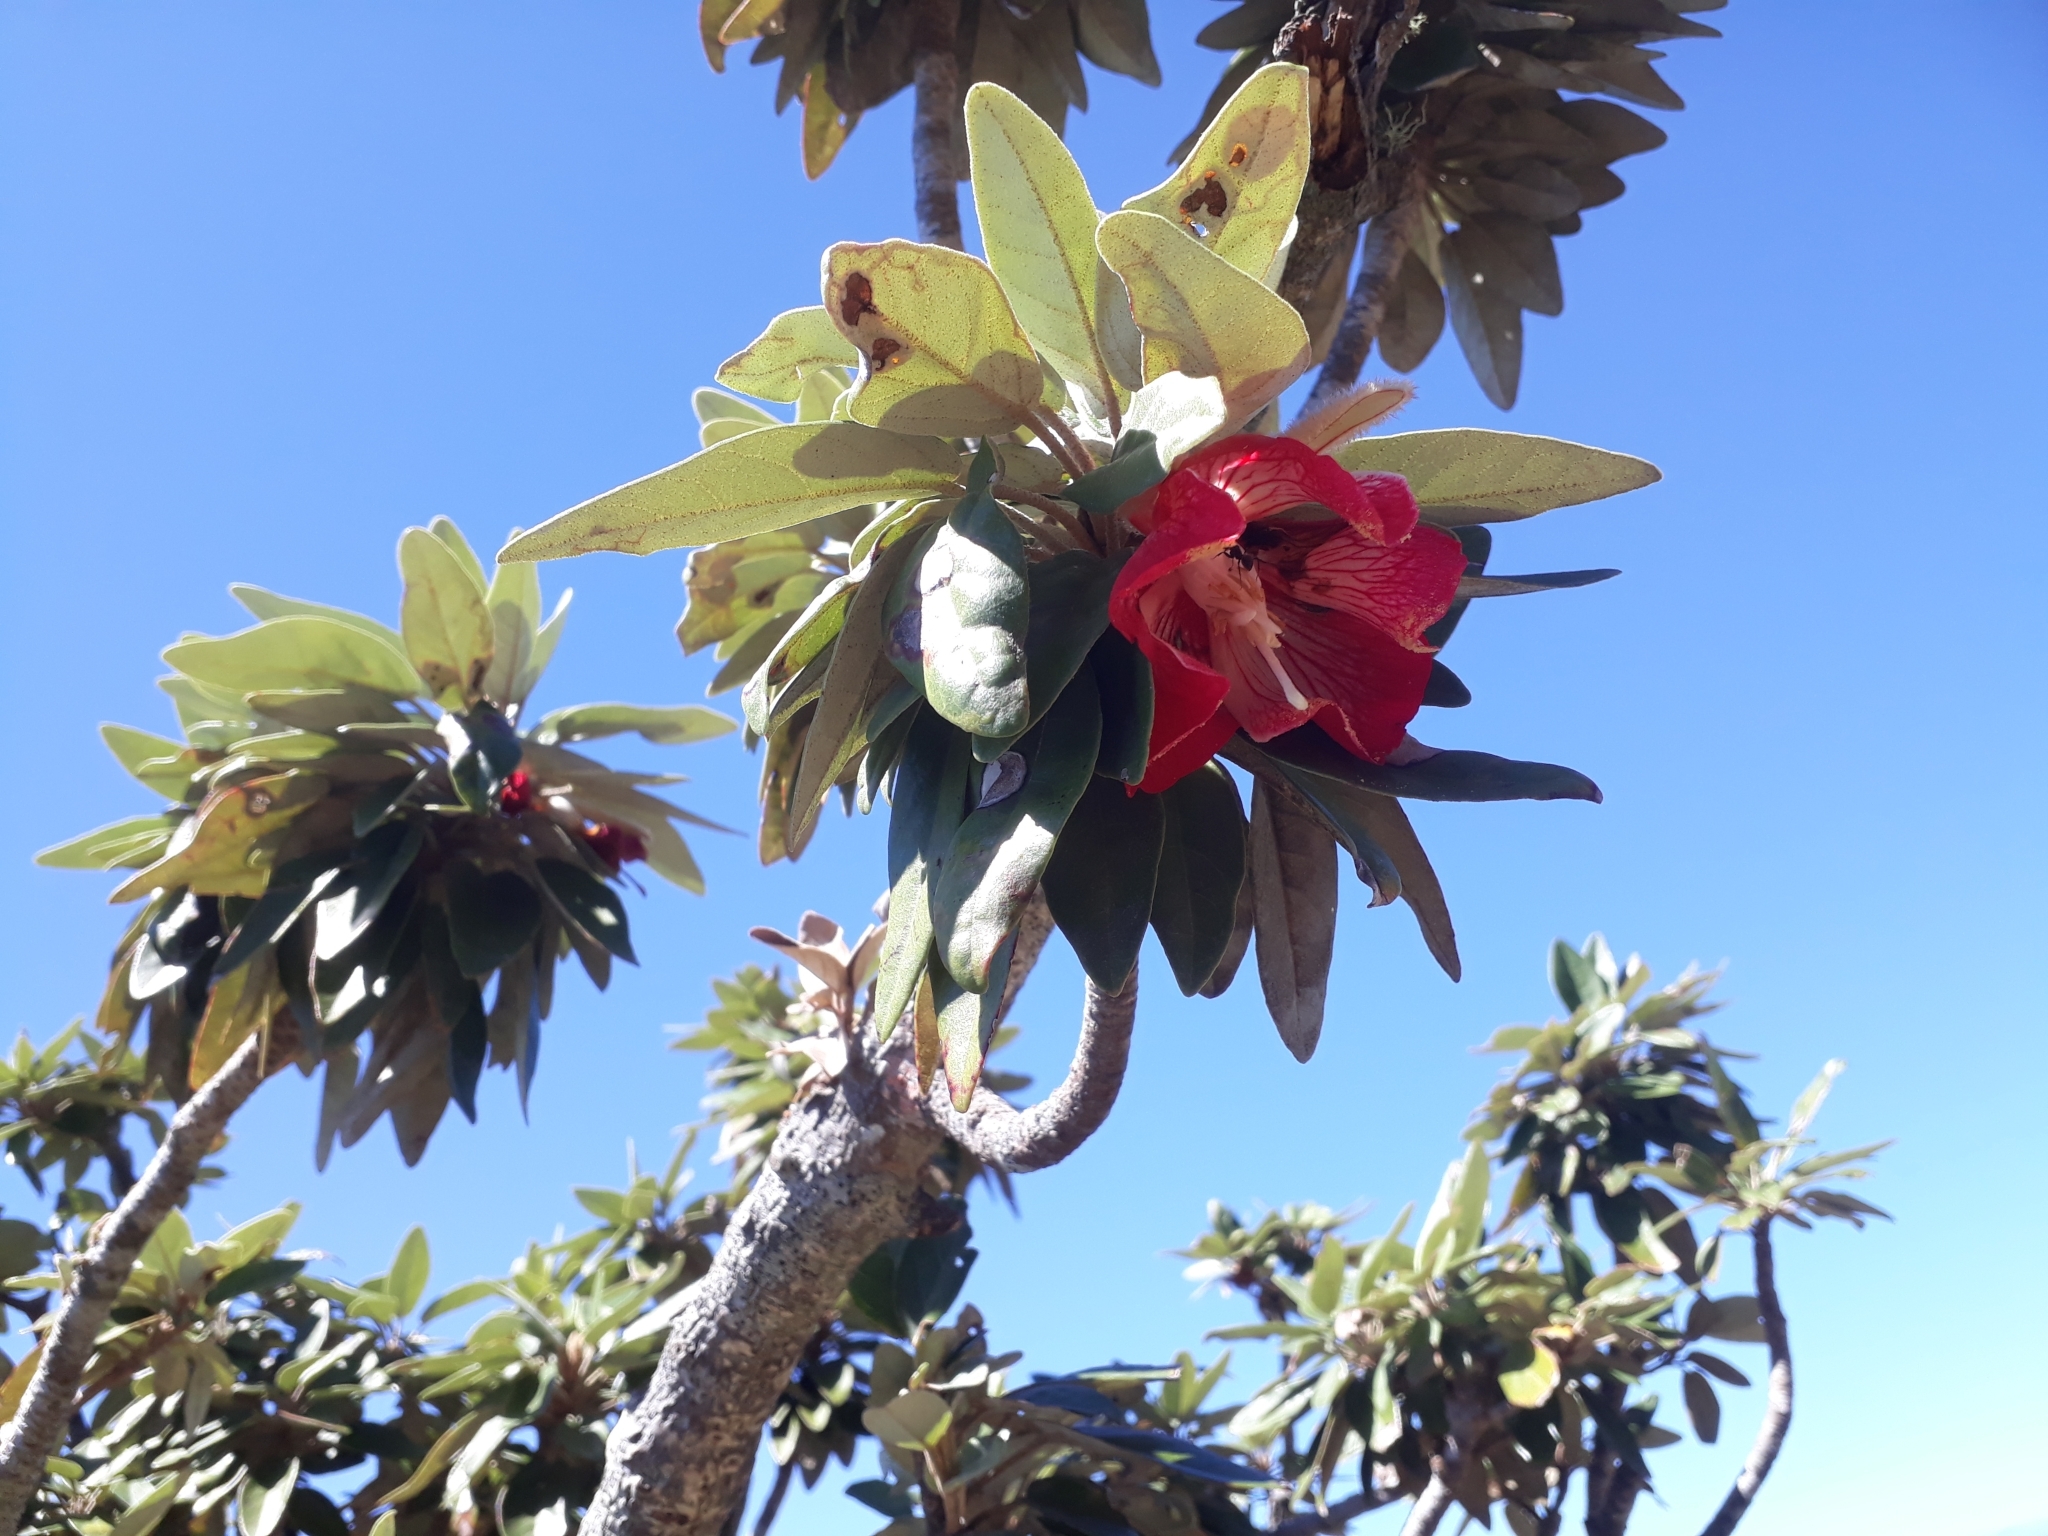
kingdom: Plantae
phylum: Tracheophyta
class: Magnoliopsida
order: Malvales
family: Malvaceae
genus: Ruizia
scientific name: Ruizia boutoniana
